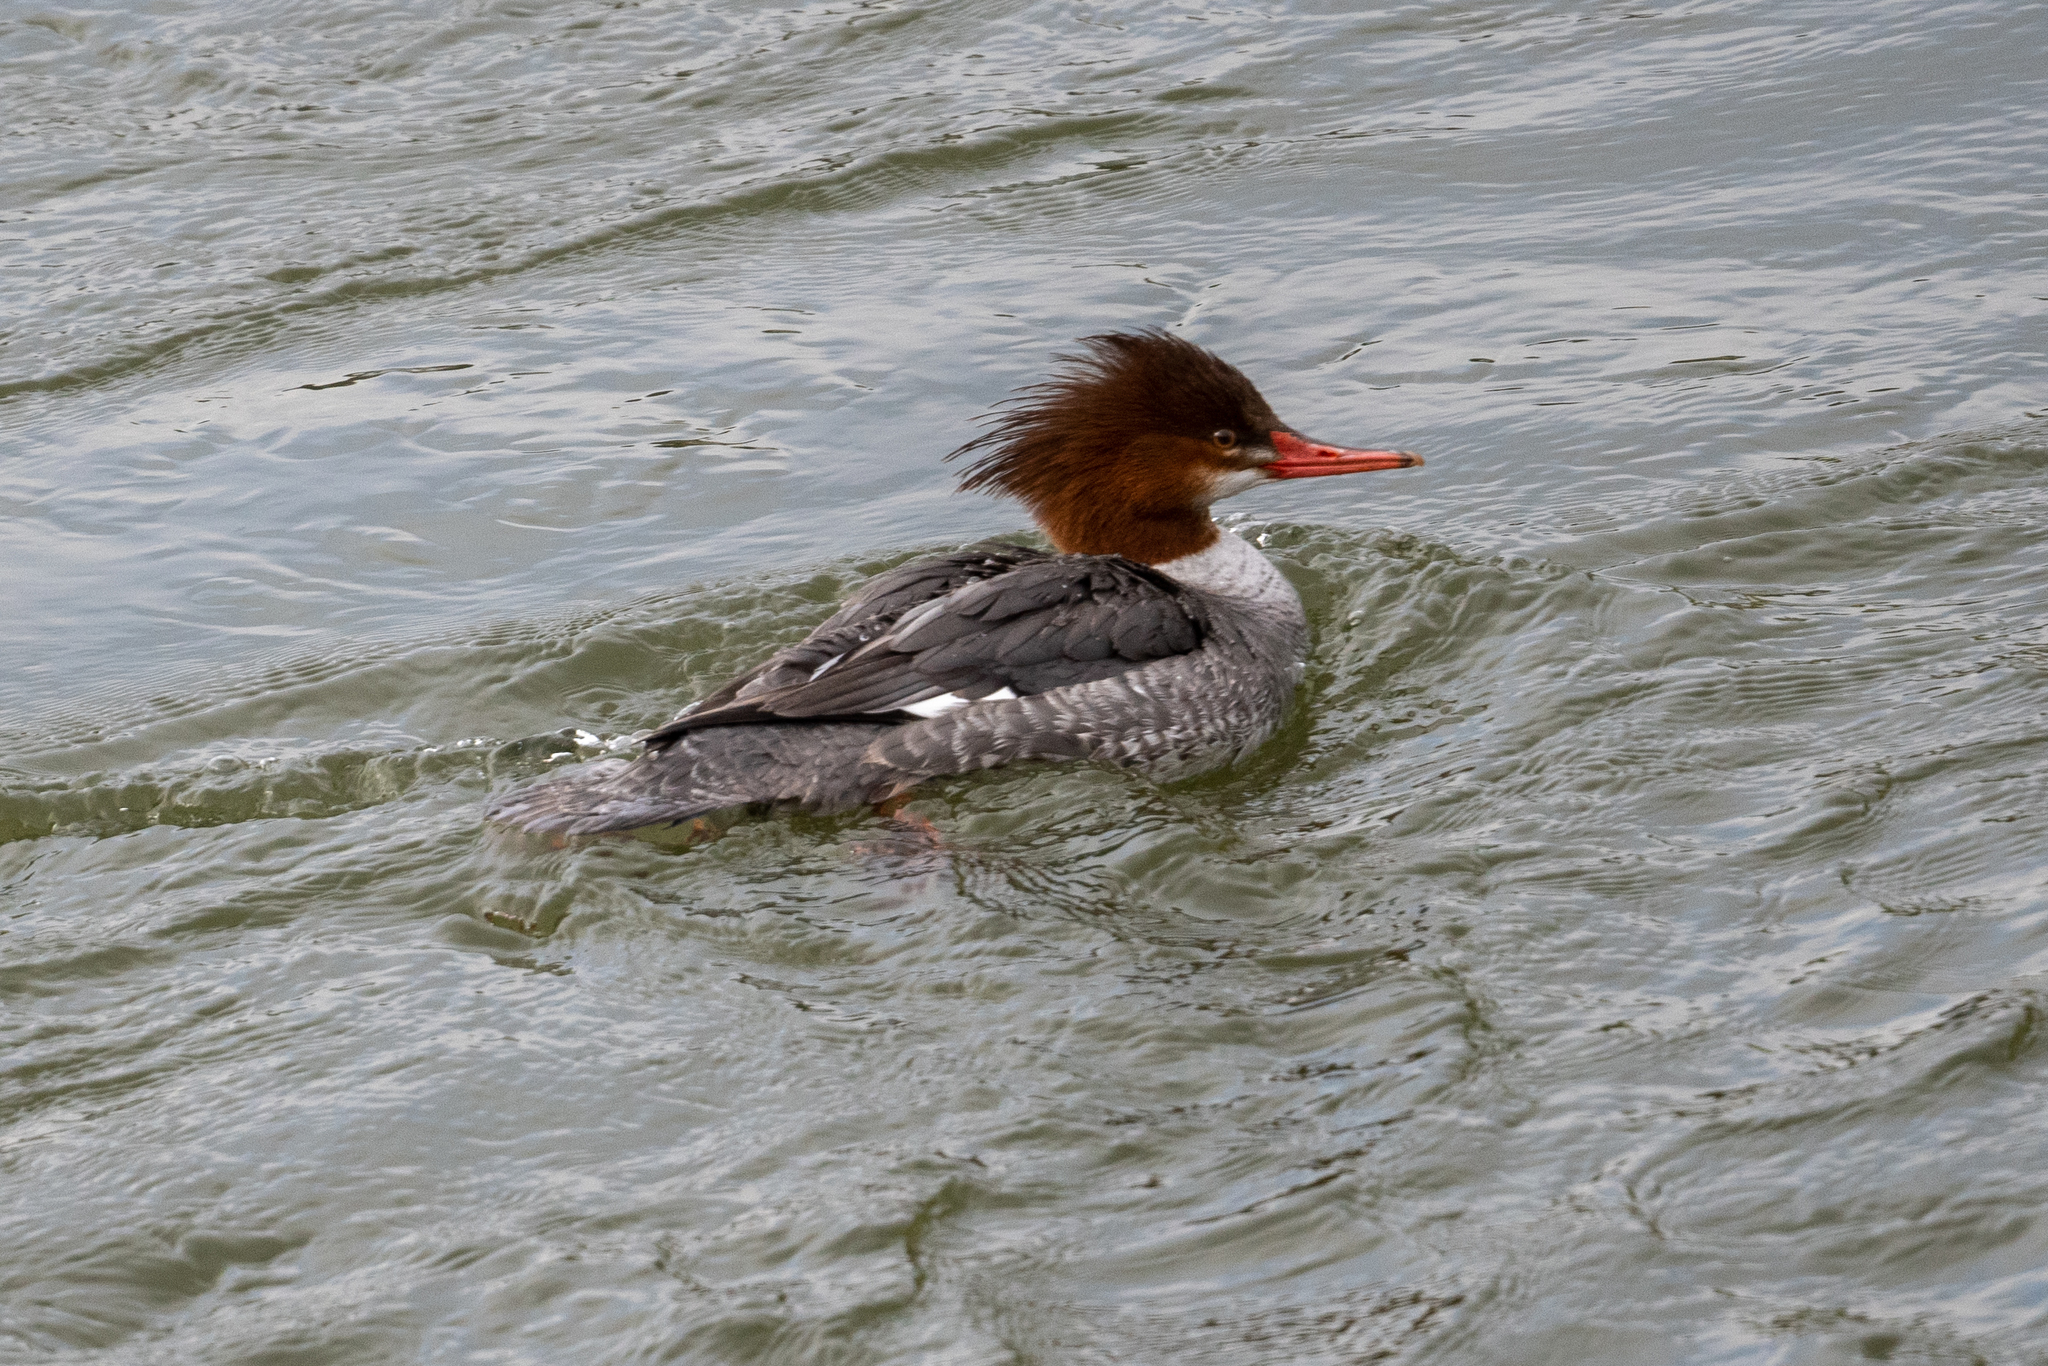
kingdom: Animalia
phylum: Chordata
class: Aves
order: Anseriformes
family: Anatidae
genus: Mergus
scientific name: Mergus merganser
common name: Common merganser
